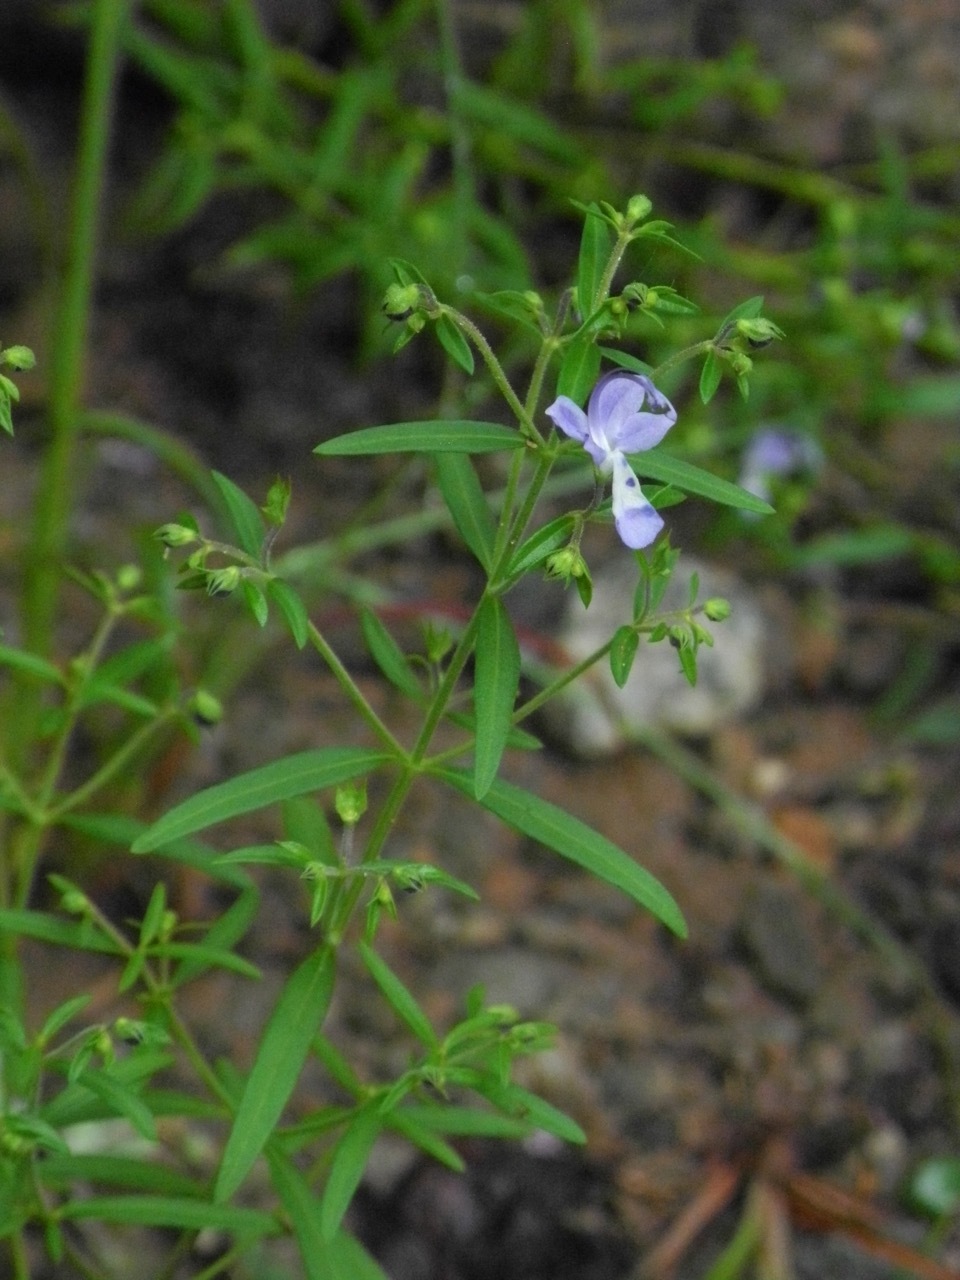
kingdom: Plantae
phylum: Tracheophyta
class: Magnoliopsida
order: Lamiales
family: Lamiaceae
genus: Trichostema
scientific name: Trichostema setaceum
